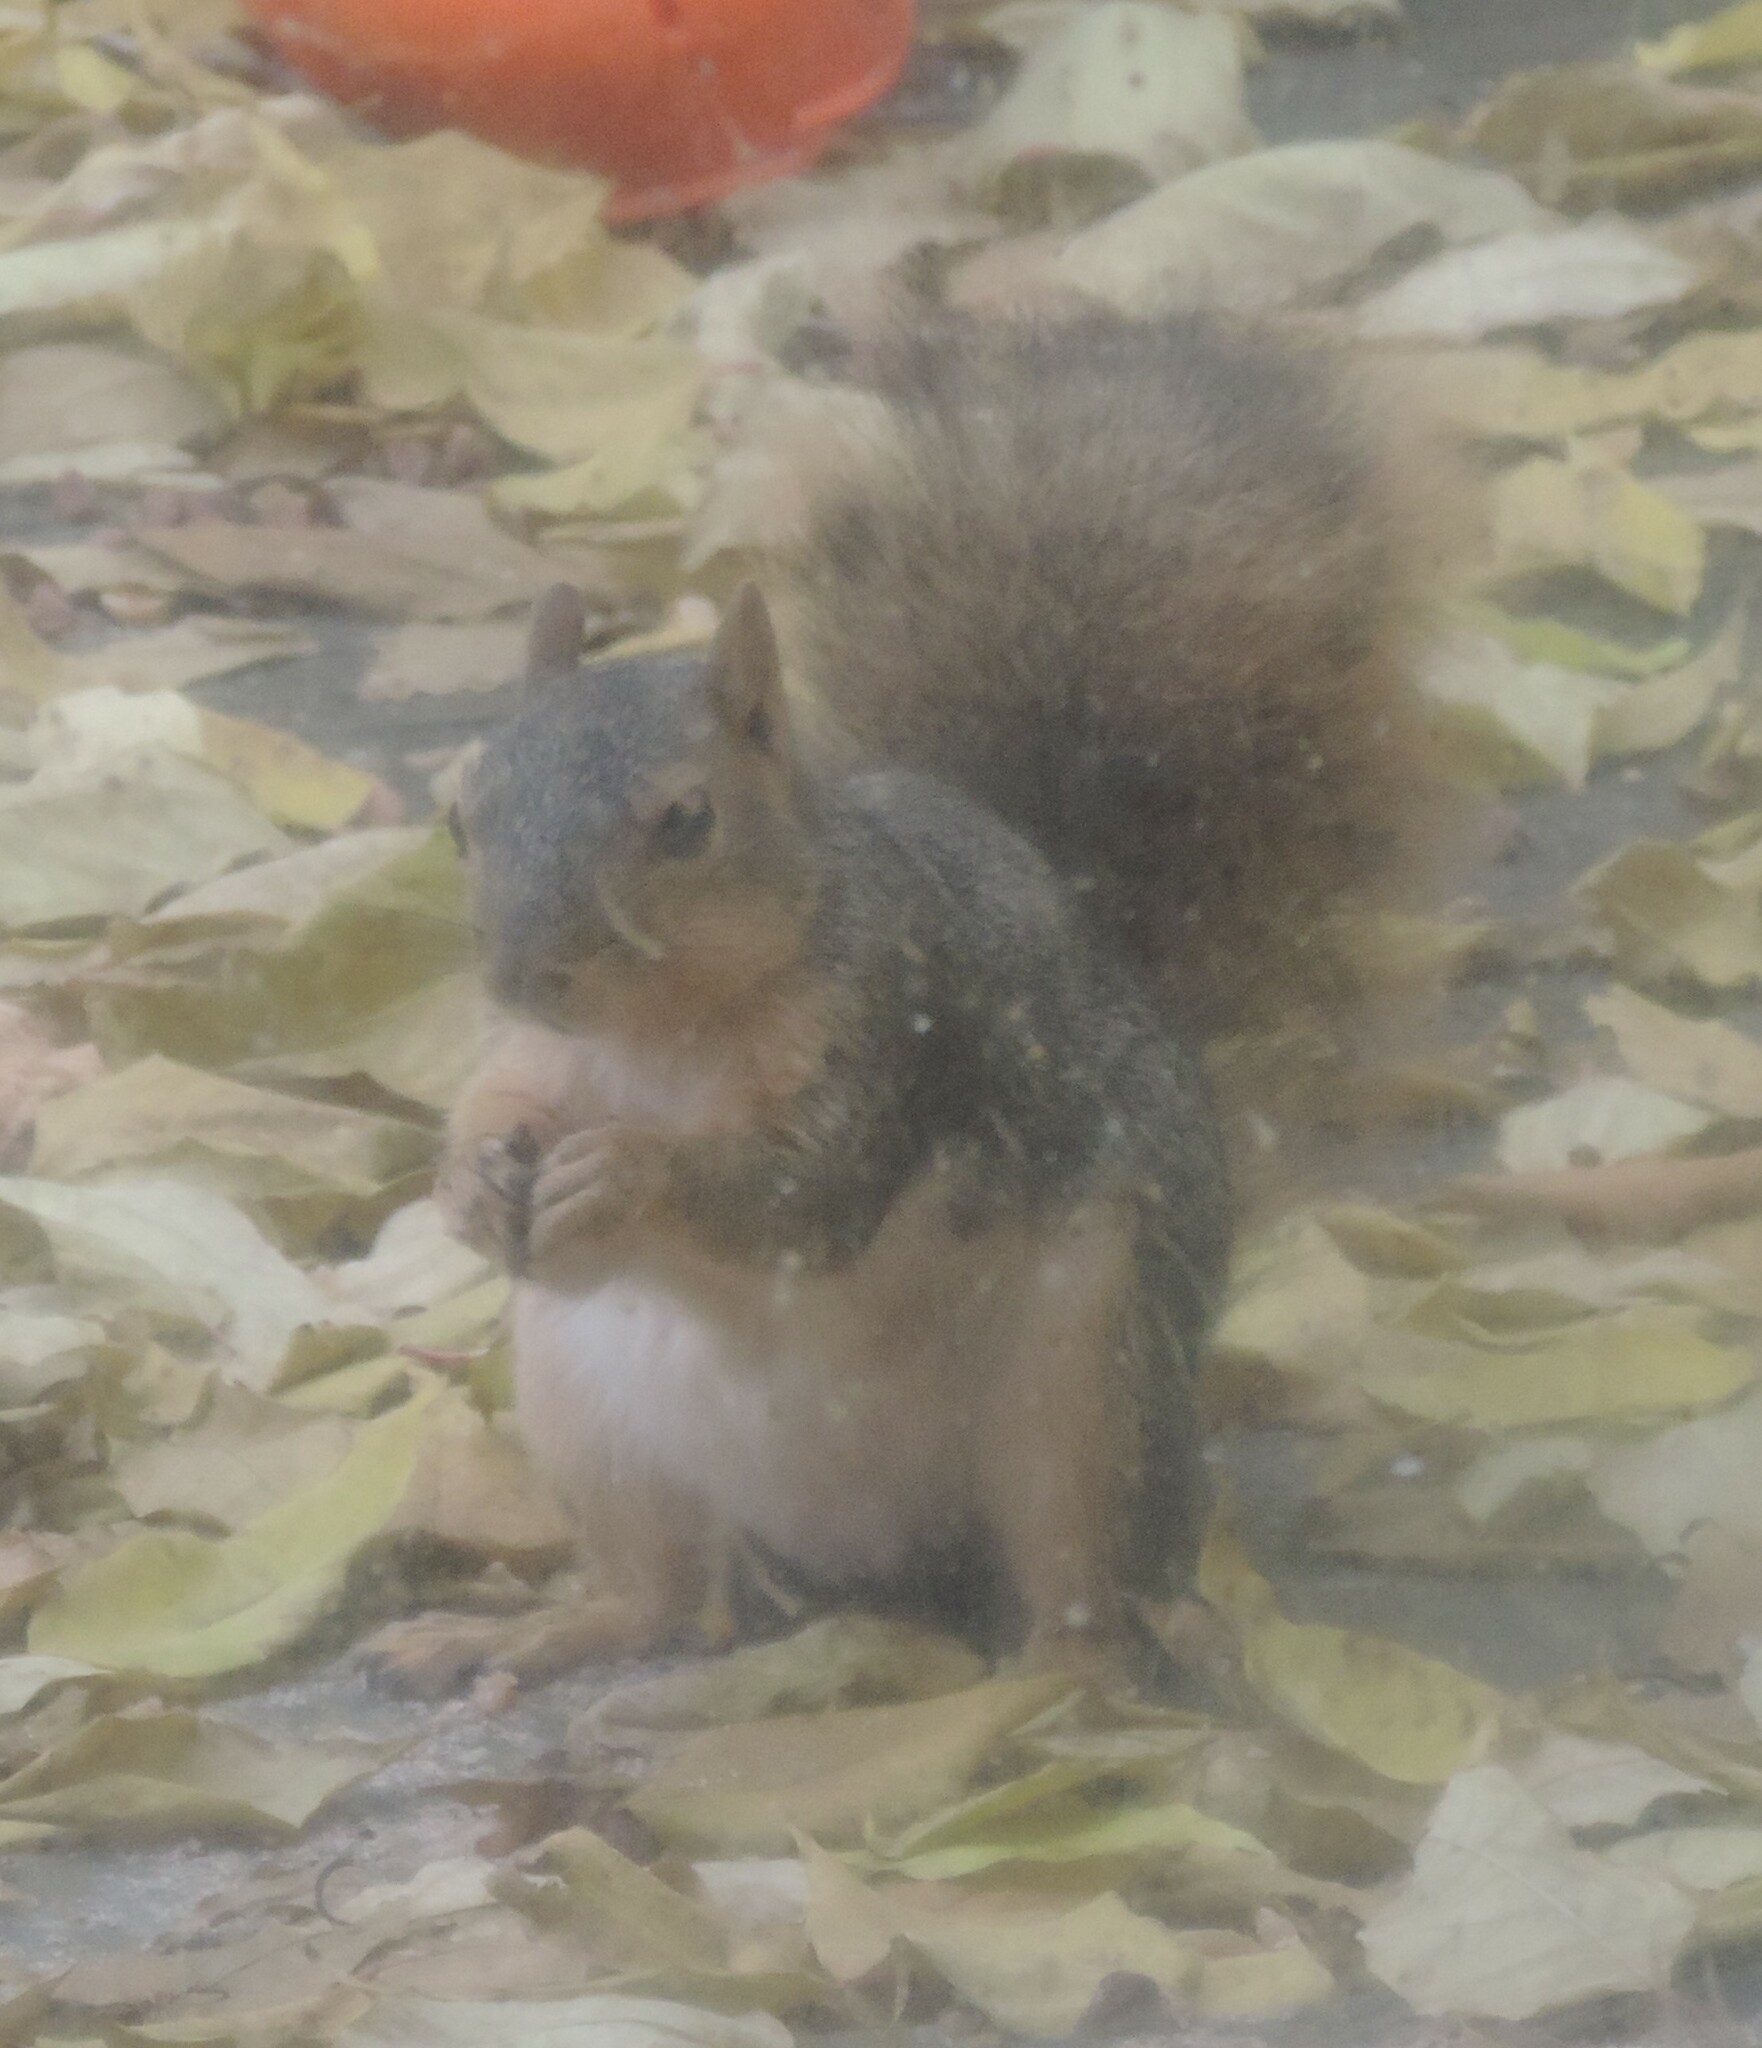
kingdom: Animalia
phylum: Chordata
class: Mammalia
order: Rodentia
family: Sciuridae
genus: Sciurus
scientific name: Sciurus niger
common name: Fox squirrel
